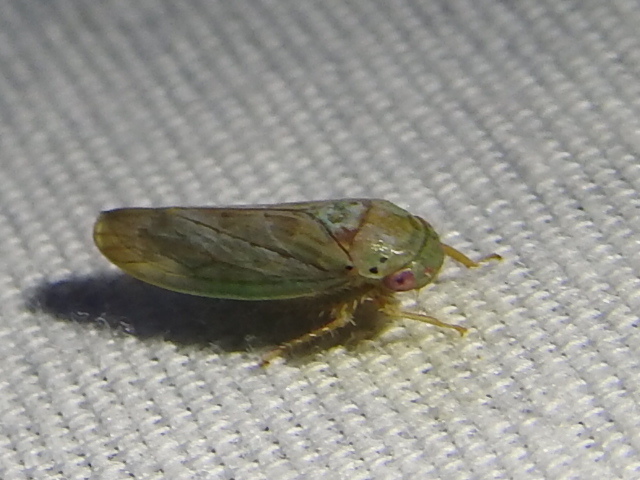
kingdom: Animalia
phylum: Arthropoda
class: Insecta
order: Hemiptera
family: Cicadellidae
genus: Polana
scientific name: Polana quadrinotata
